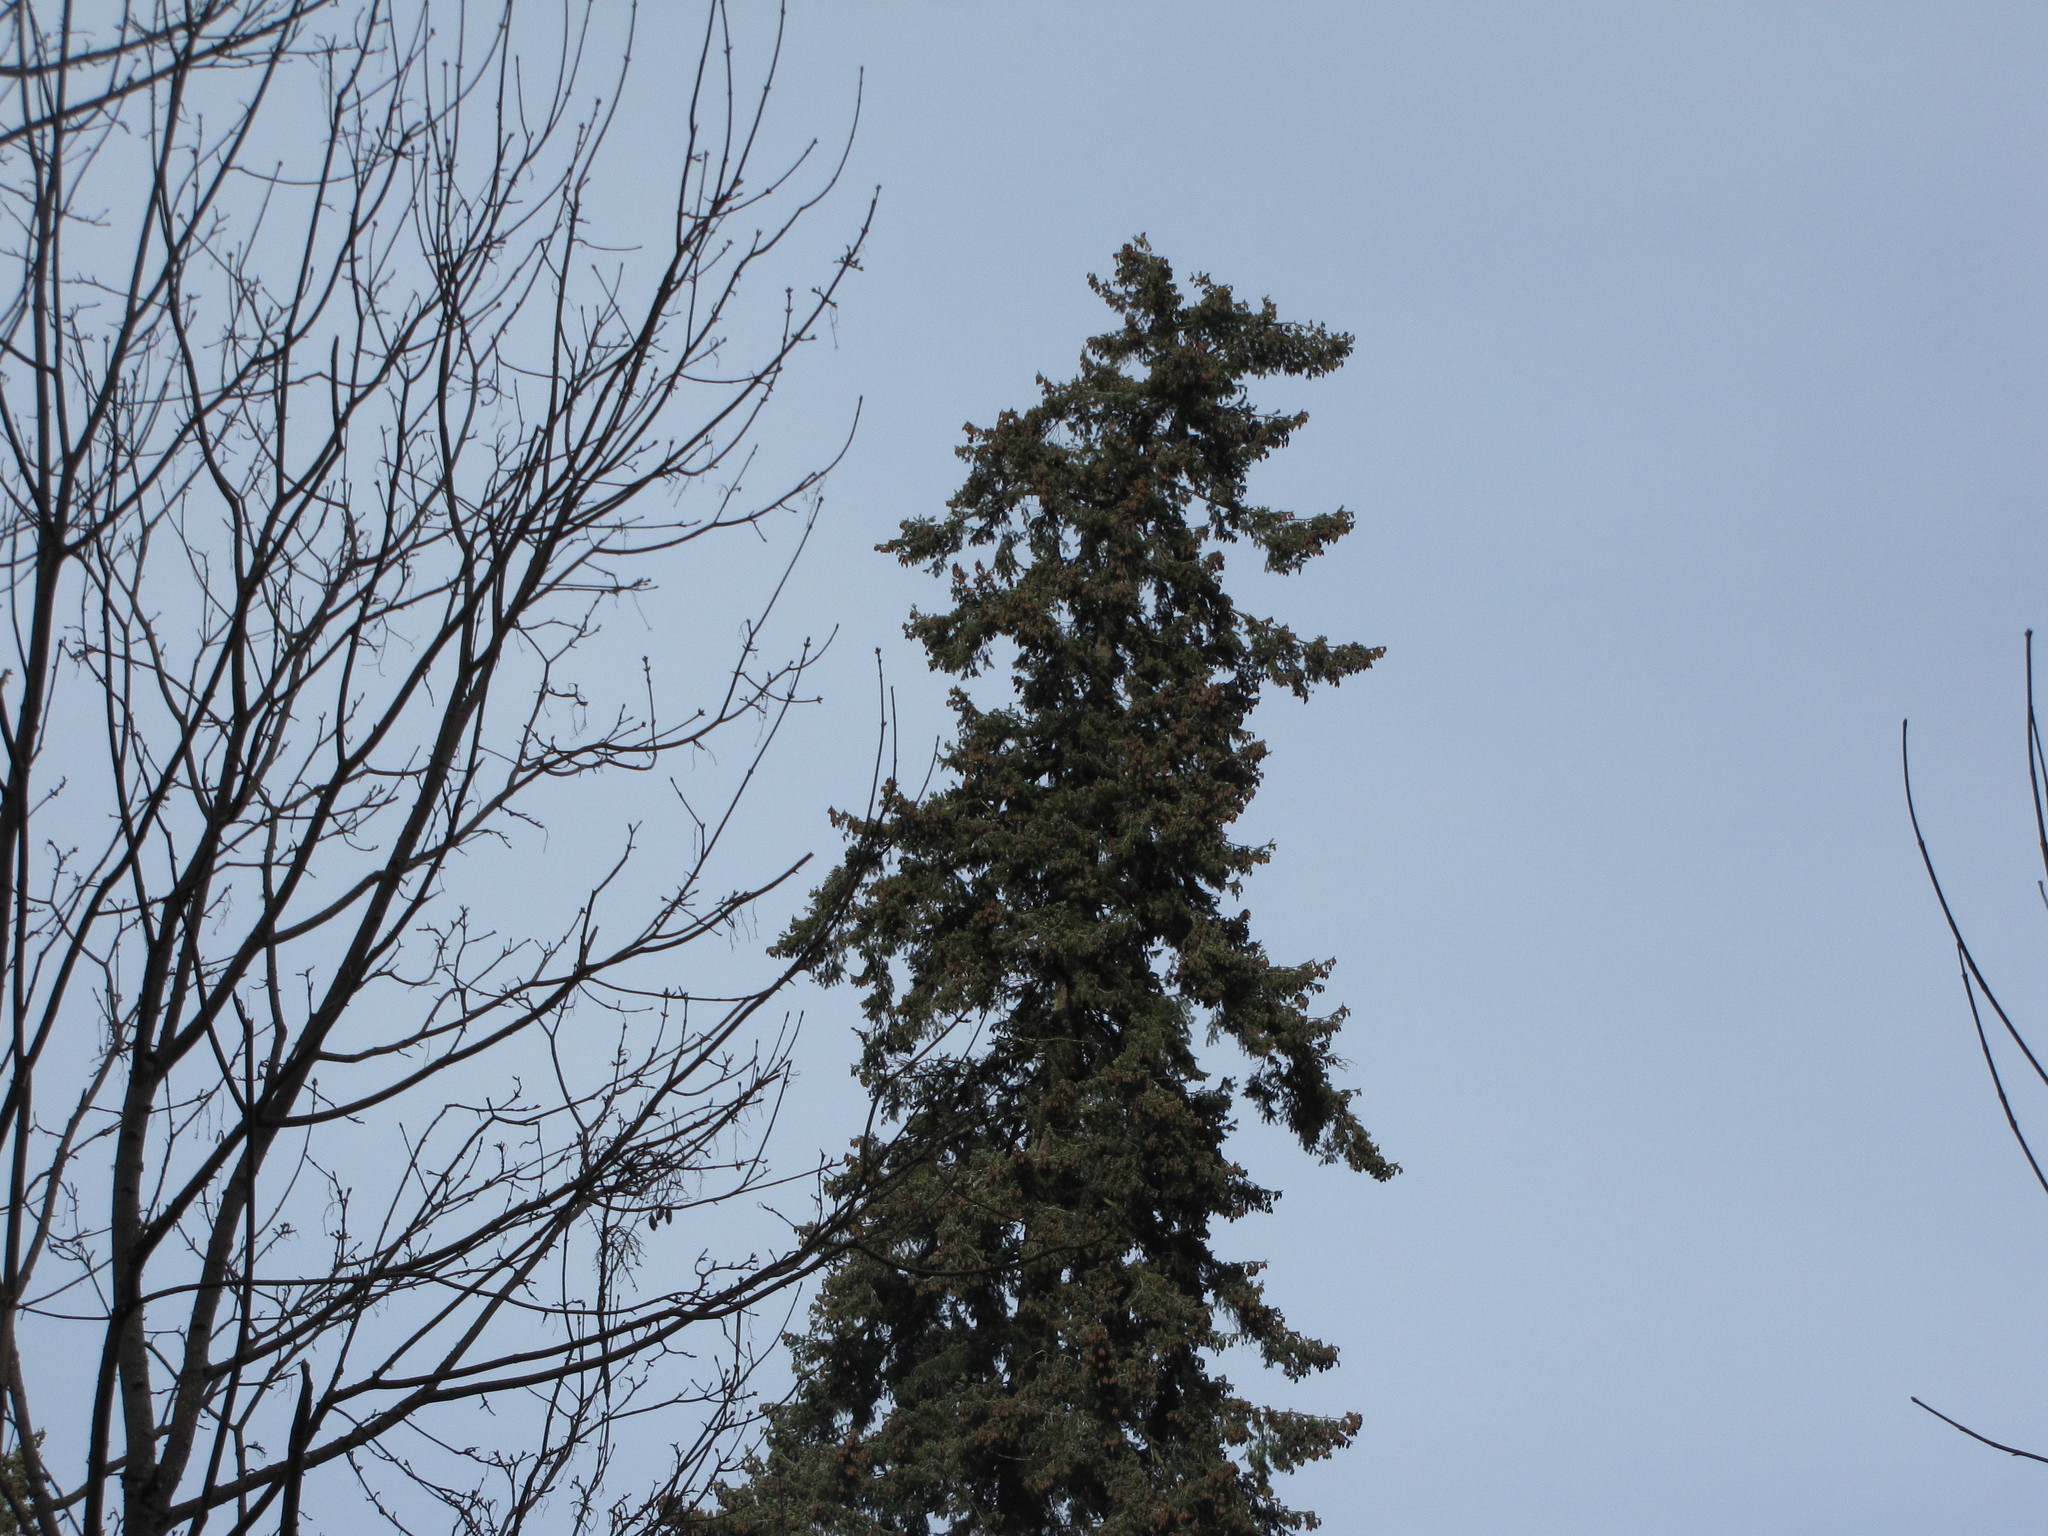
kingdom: Plantae
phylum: Tracheophyta
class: Pinopsida
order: Pinales
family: Pinaceae
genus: Pseudotsuga
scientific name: Pseudotsuga menziesii
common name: Douglas fir
